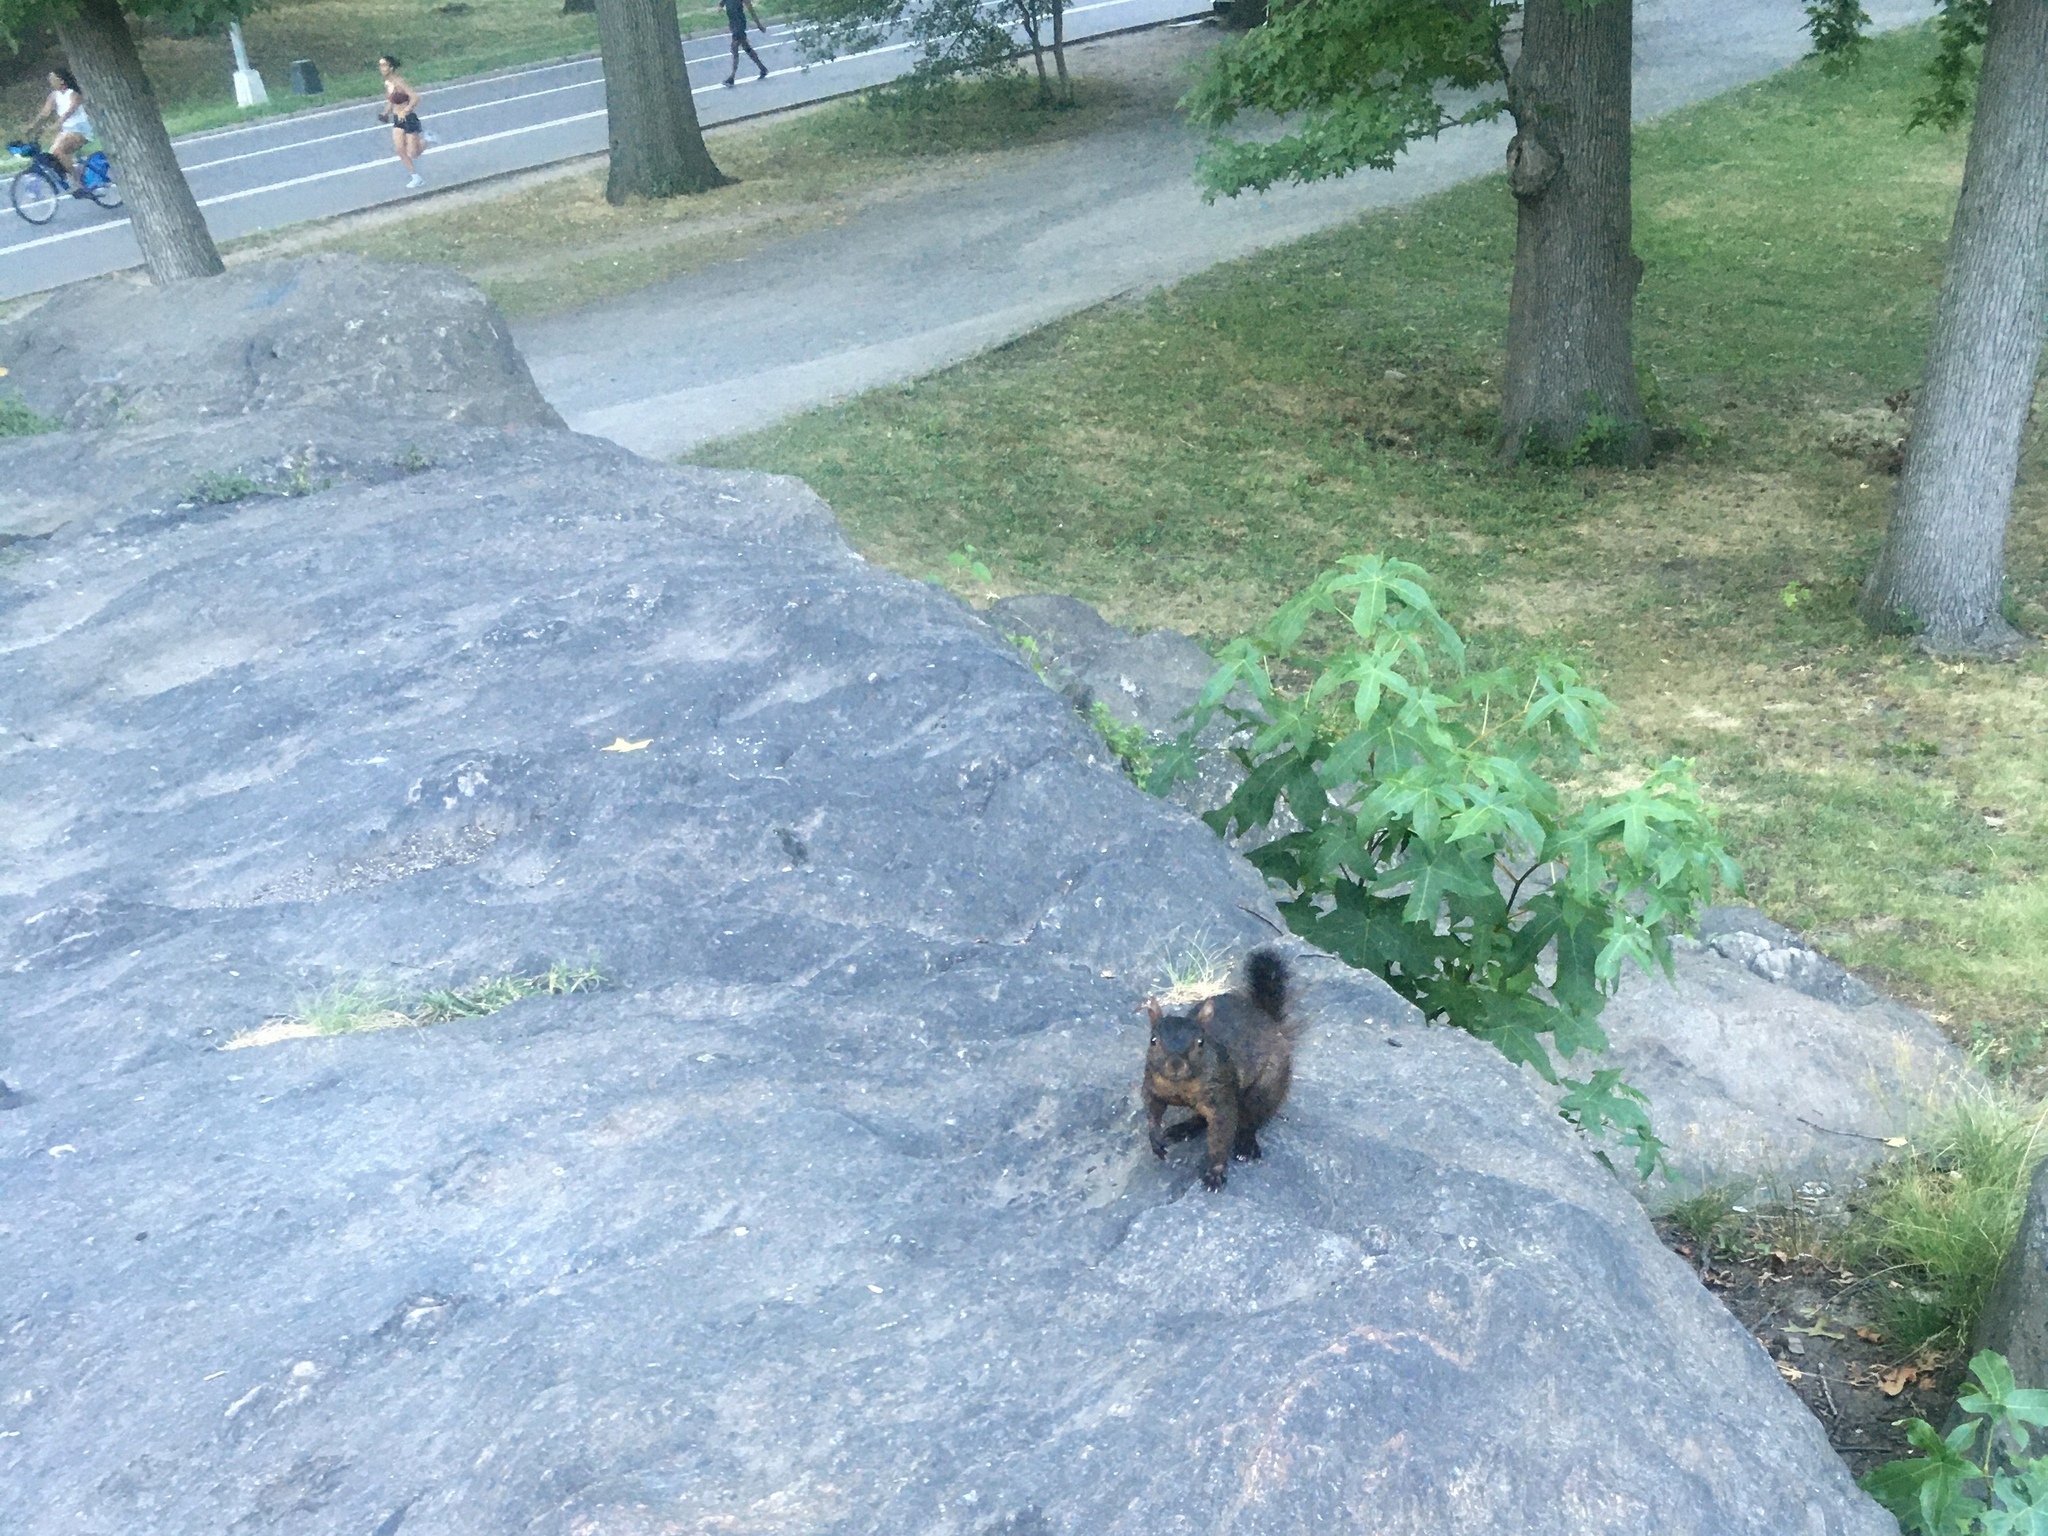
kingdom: Animalia
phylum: Chordata
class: Mammalia
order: Rodentia
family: Sciuridae
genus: Sciurus
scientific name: Sciurus carolinensis
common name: Eastern gray squirrel
